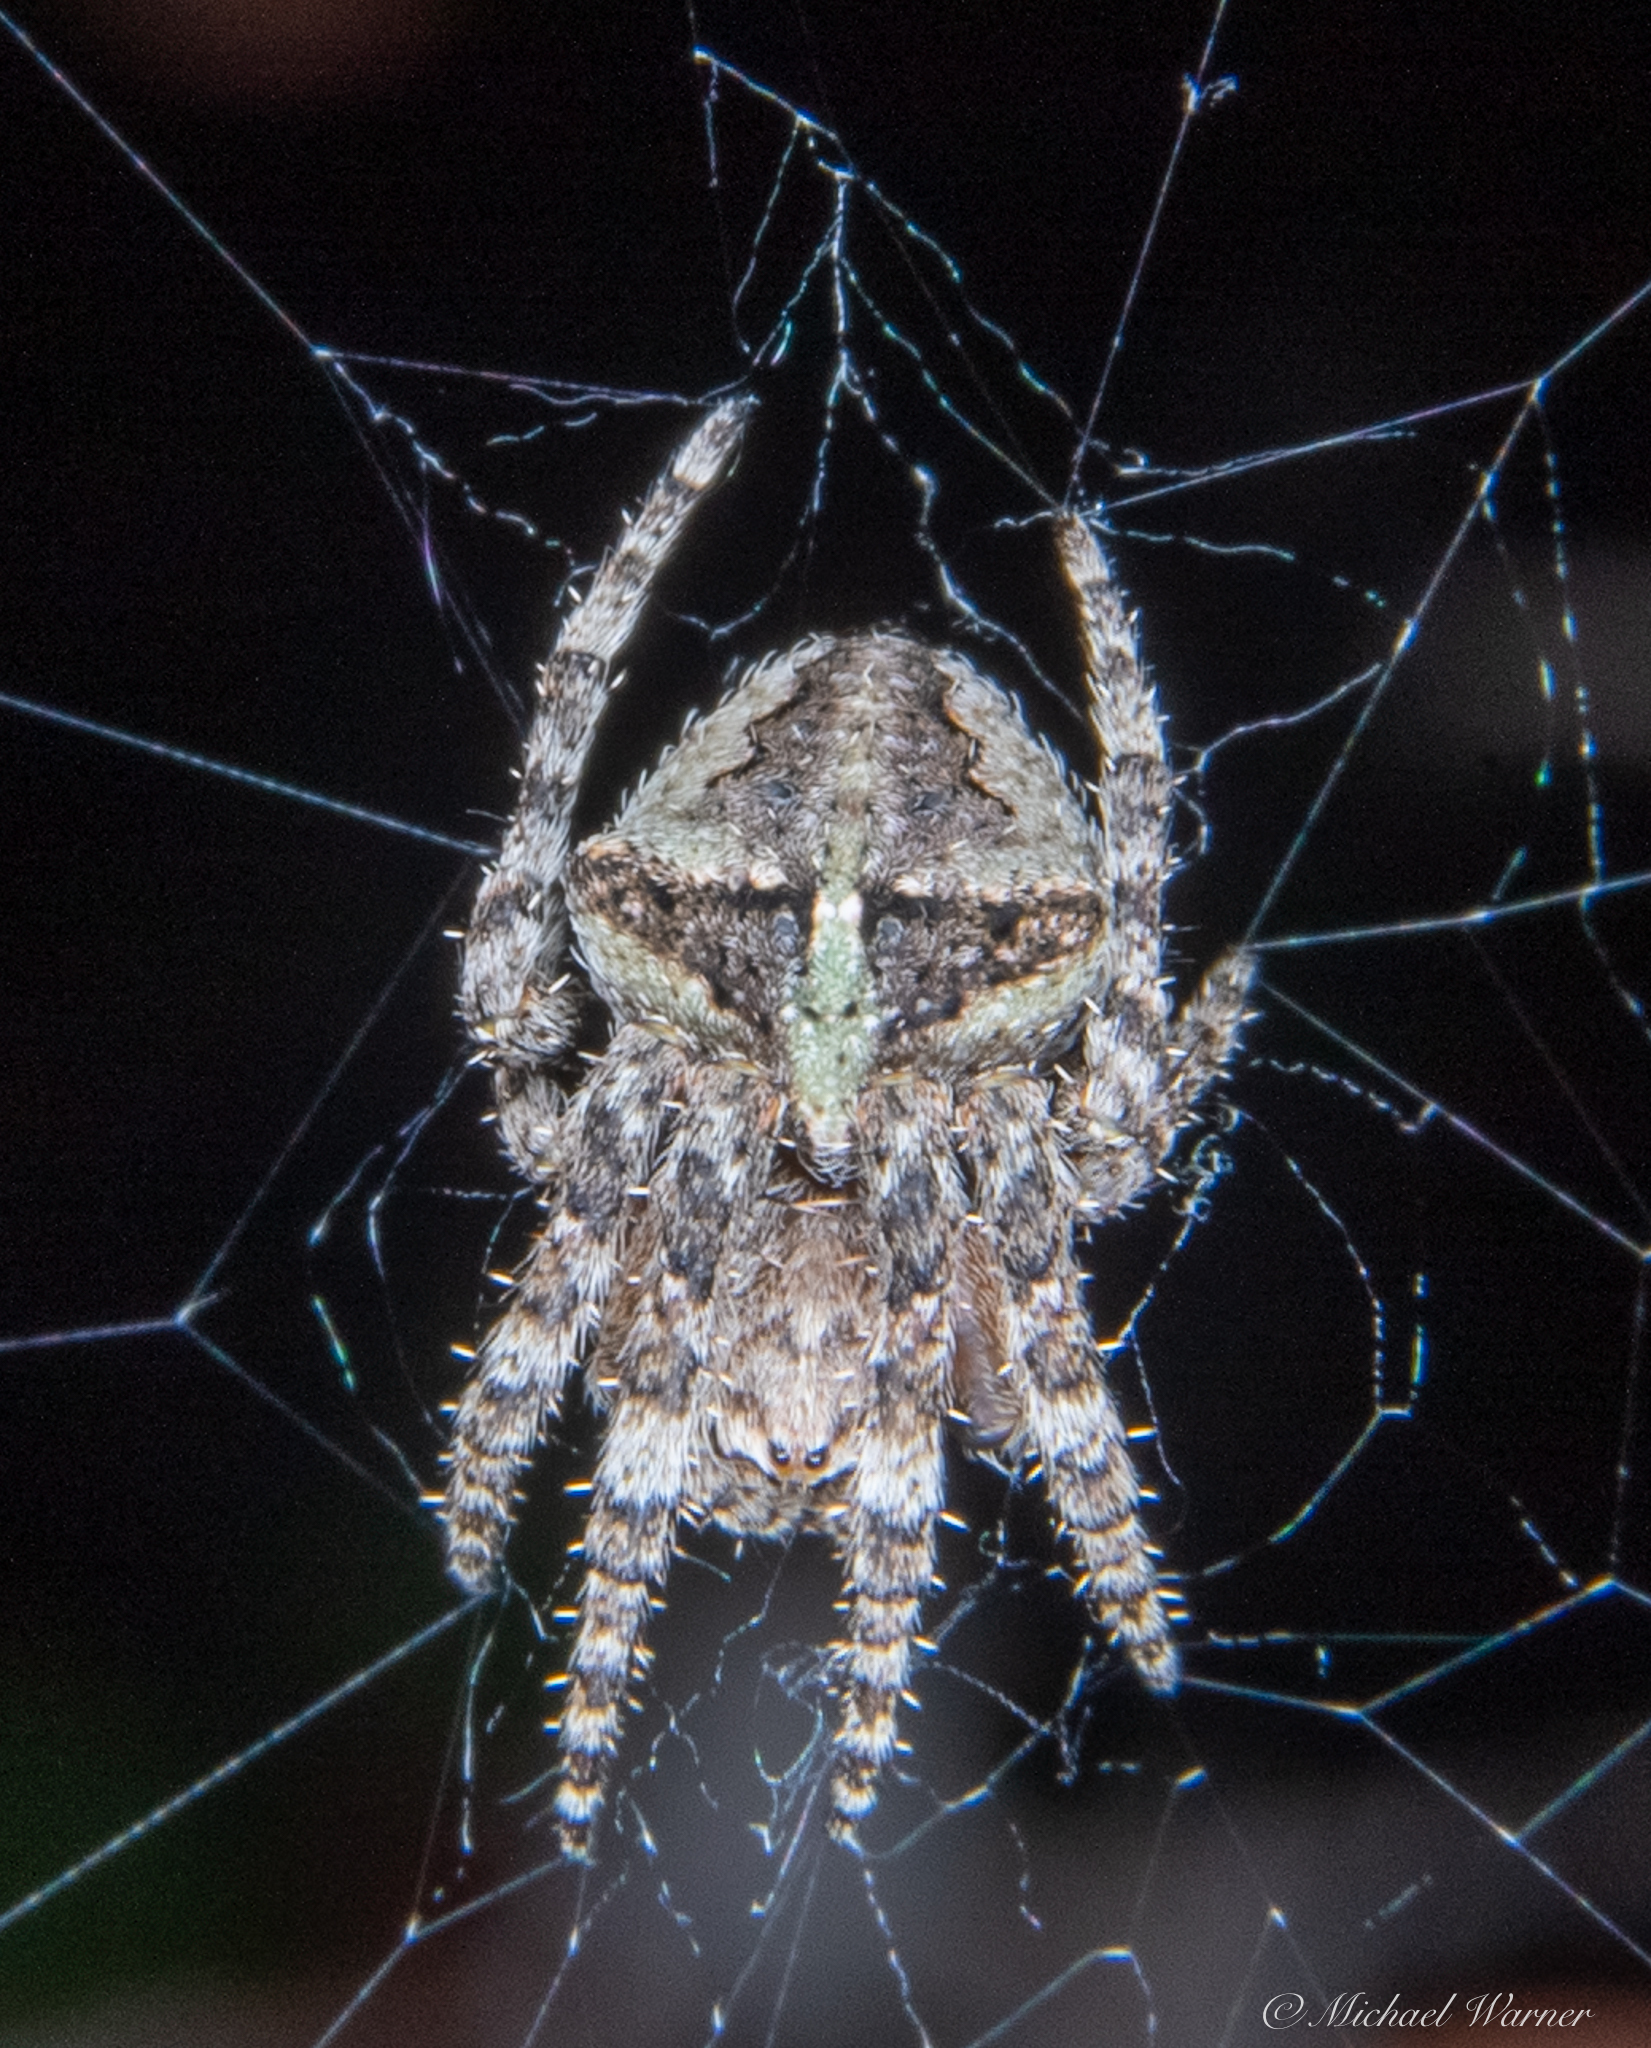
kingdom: Animalia
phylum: Arthropoda
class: Arachnida
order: Araneae
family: Araneidae
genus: Araneus
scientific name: Araneus andrewsi
